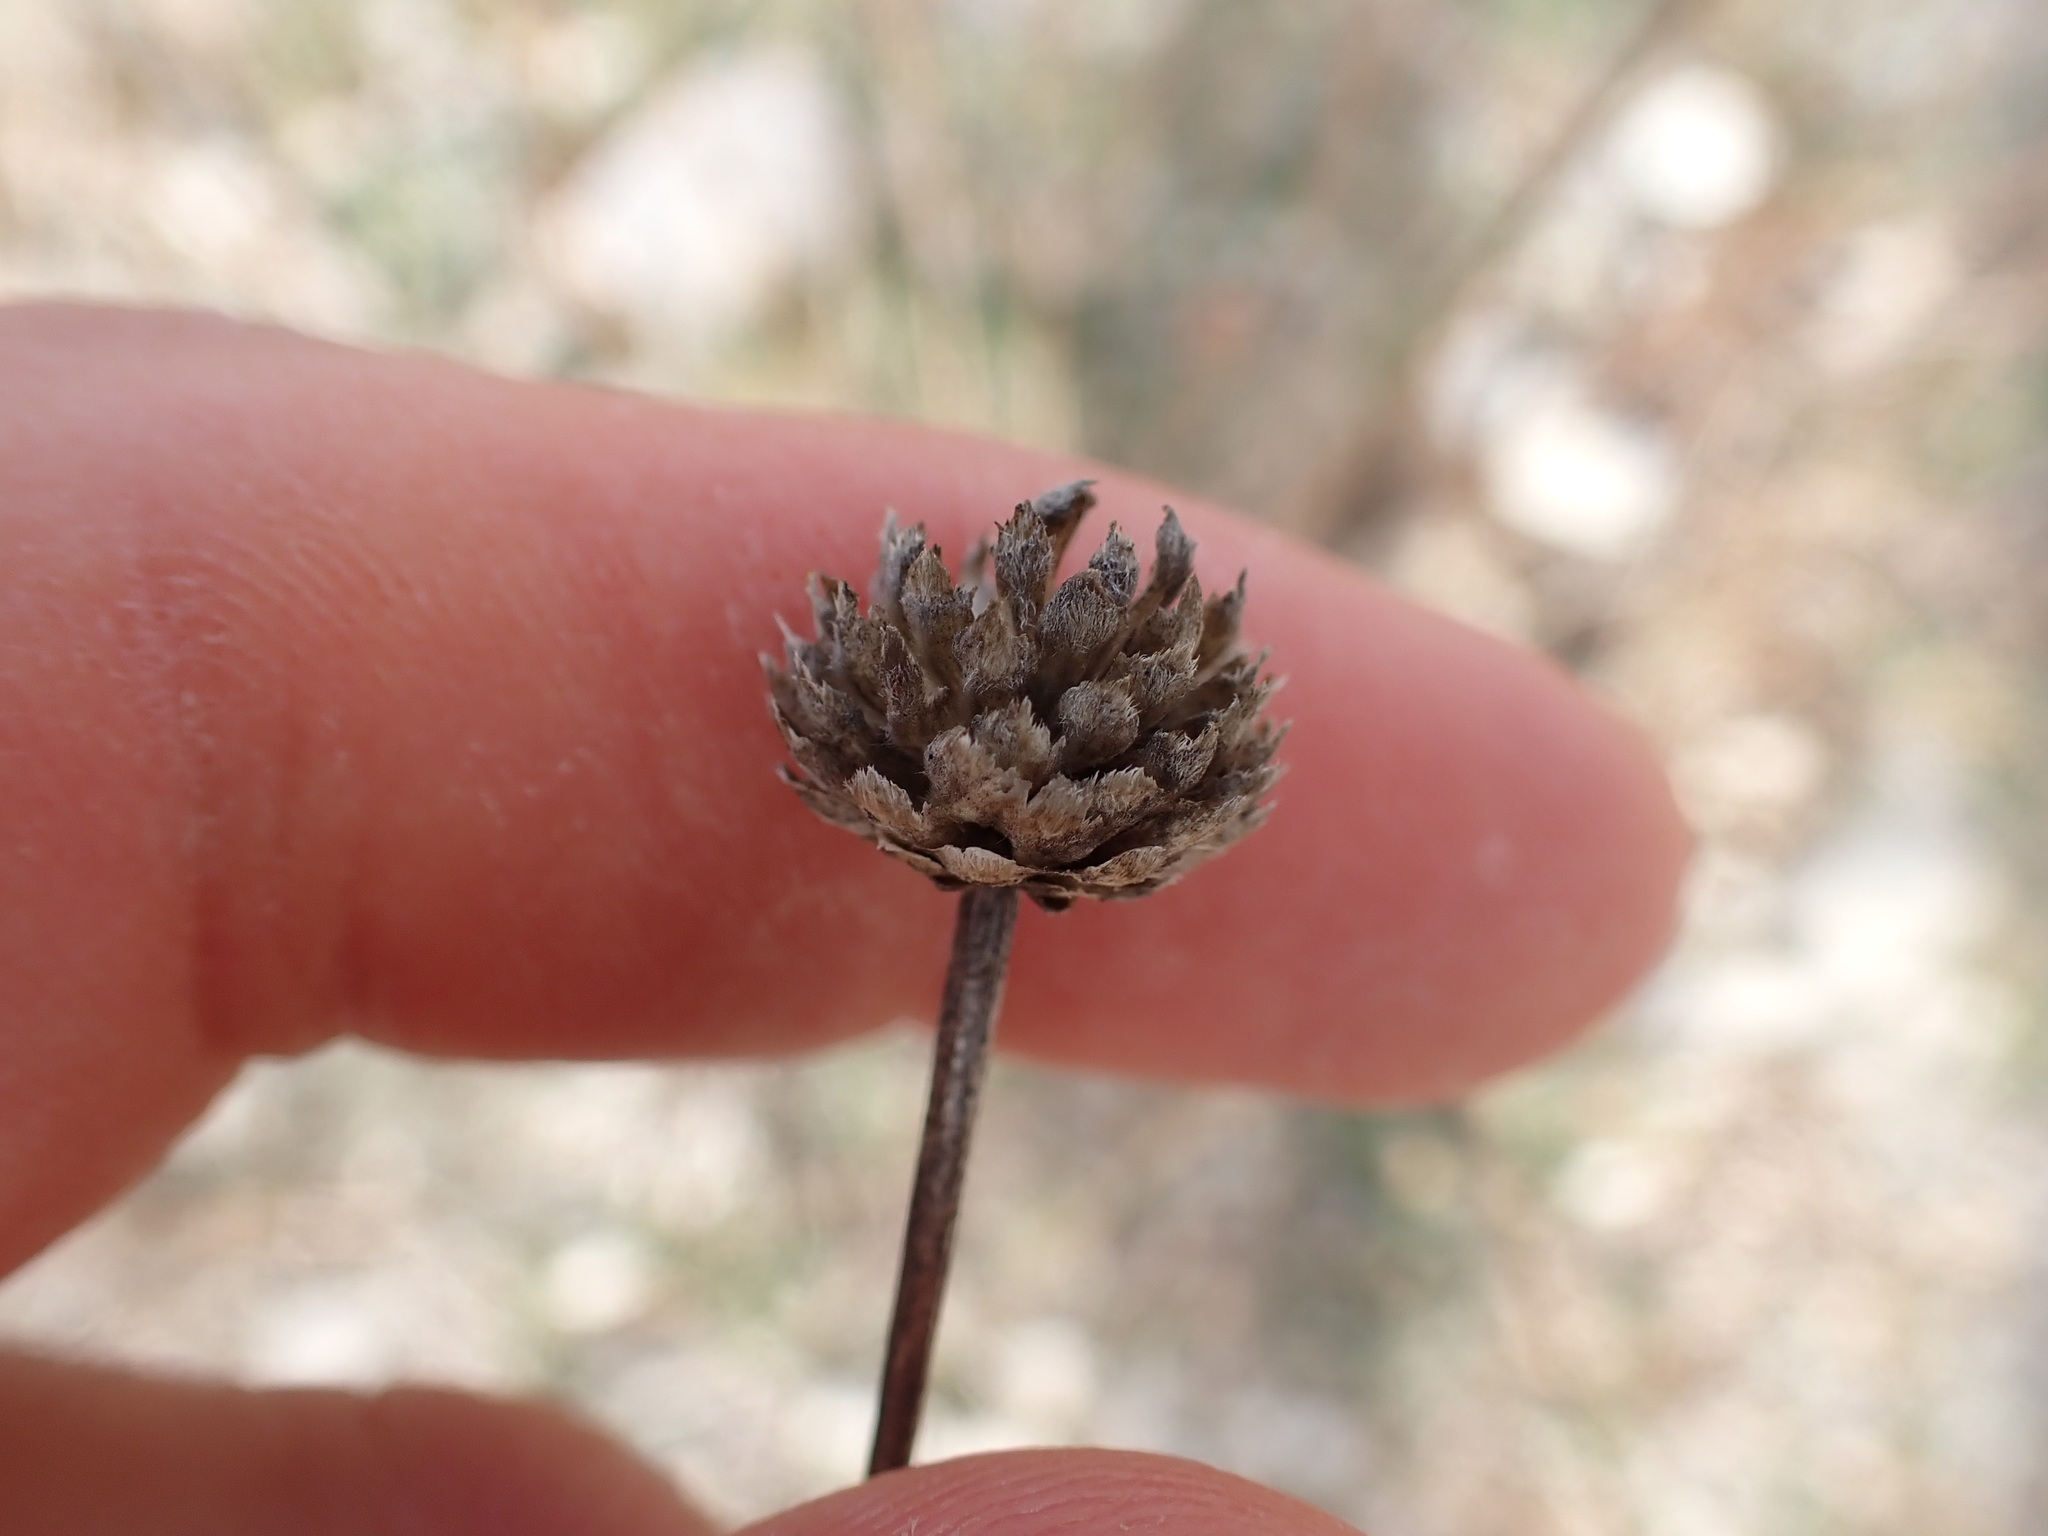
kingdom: Plantae
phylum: Tracheophyta
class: Magnoliopsida
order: Dipsacales
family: Caprifoliaceae
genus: Cephalaria
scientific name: Cephalaria leucantha
